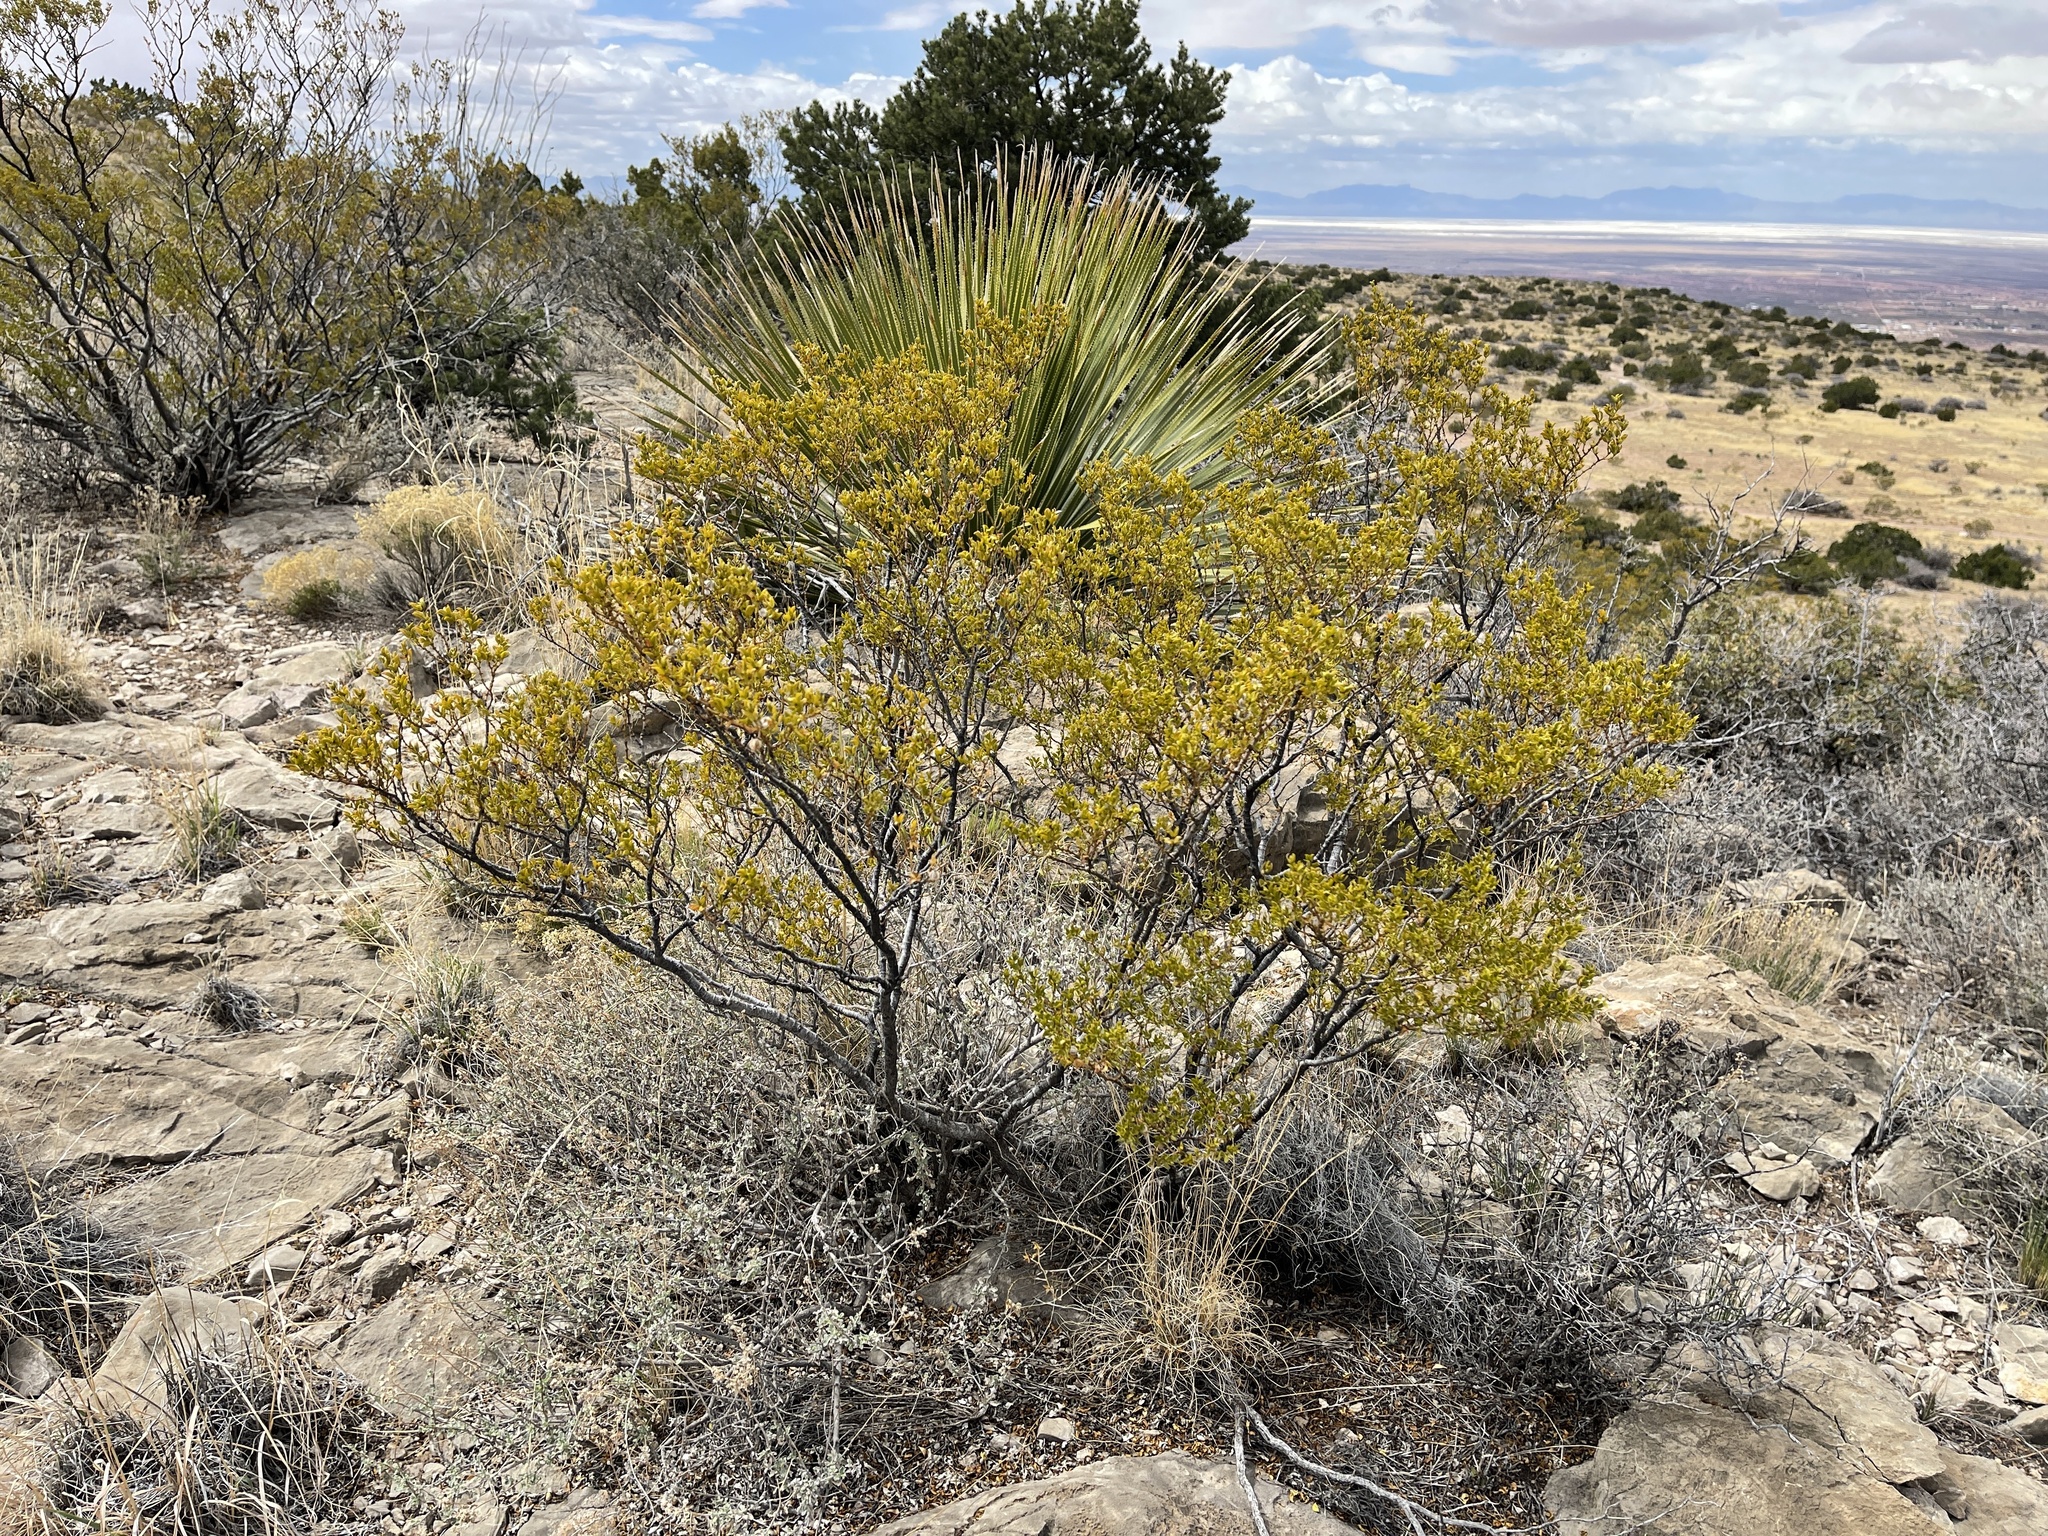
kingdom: Plantae
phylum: Tracheophyta
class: Magnoliopsida
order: Zygophyllales
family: Zygophyllaceae
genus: Larrea
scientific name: Larrea tridentata
